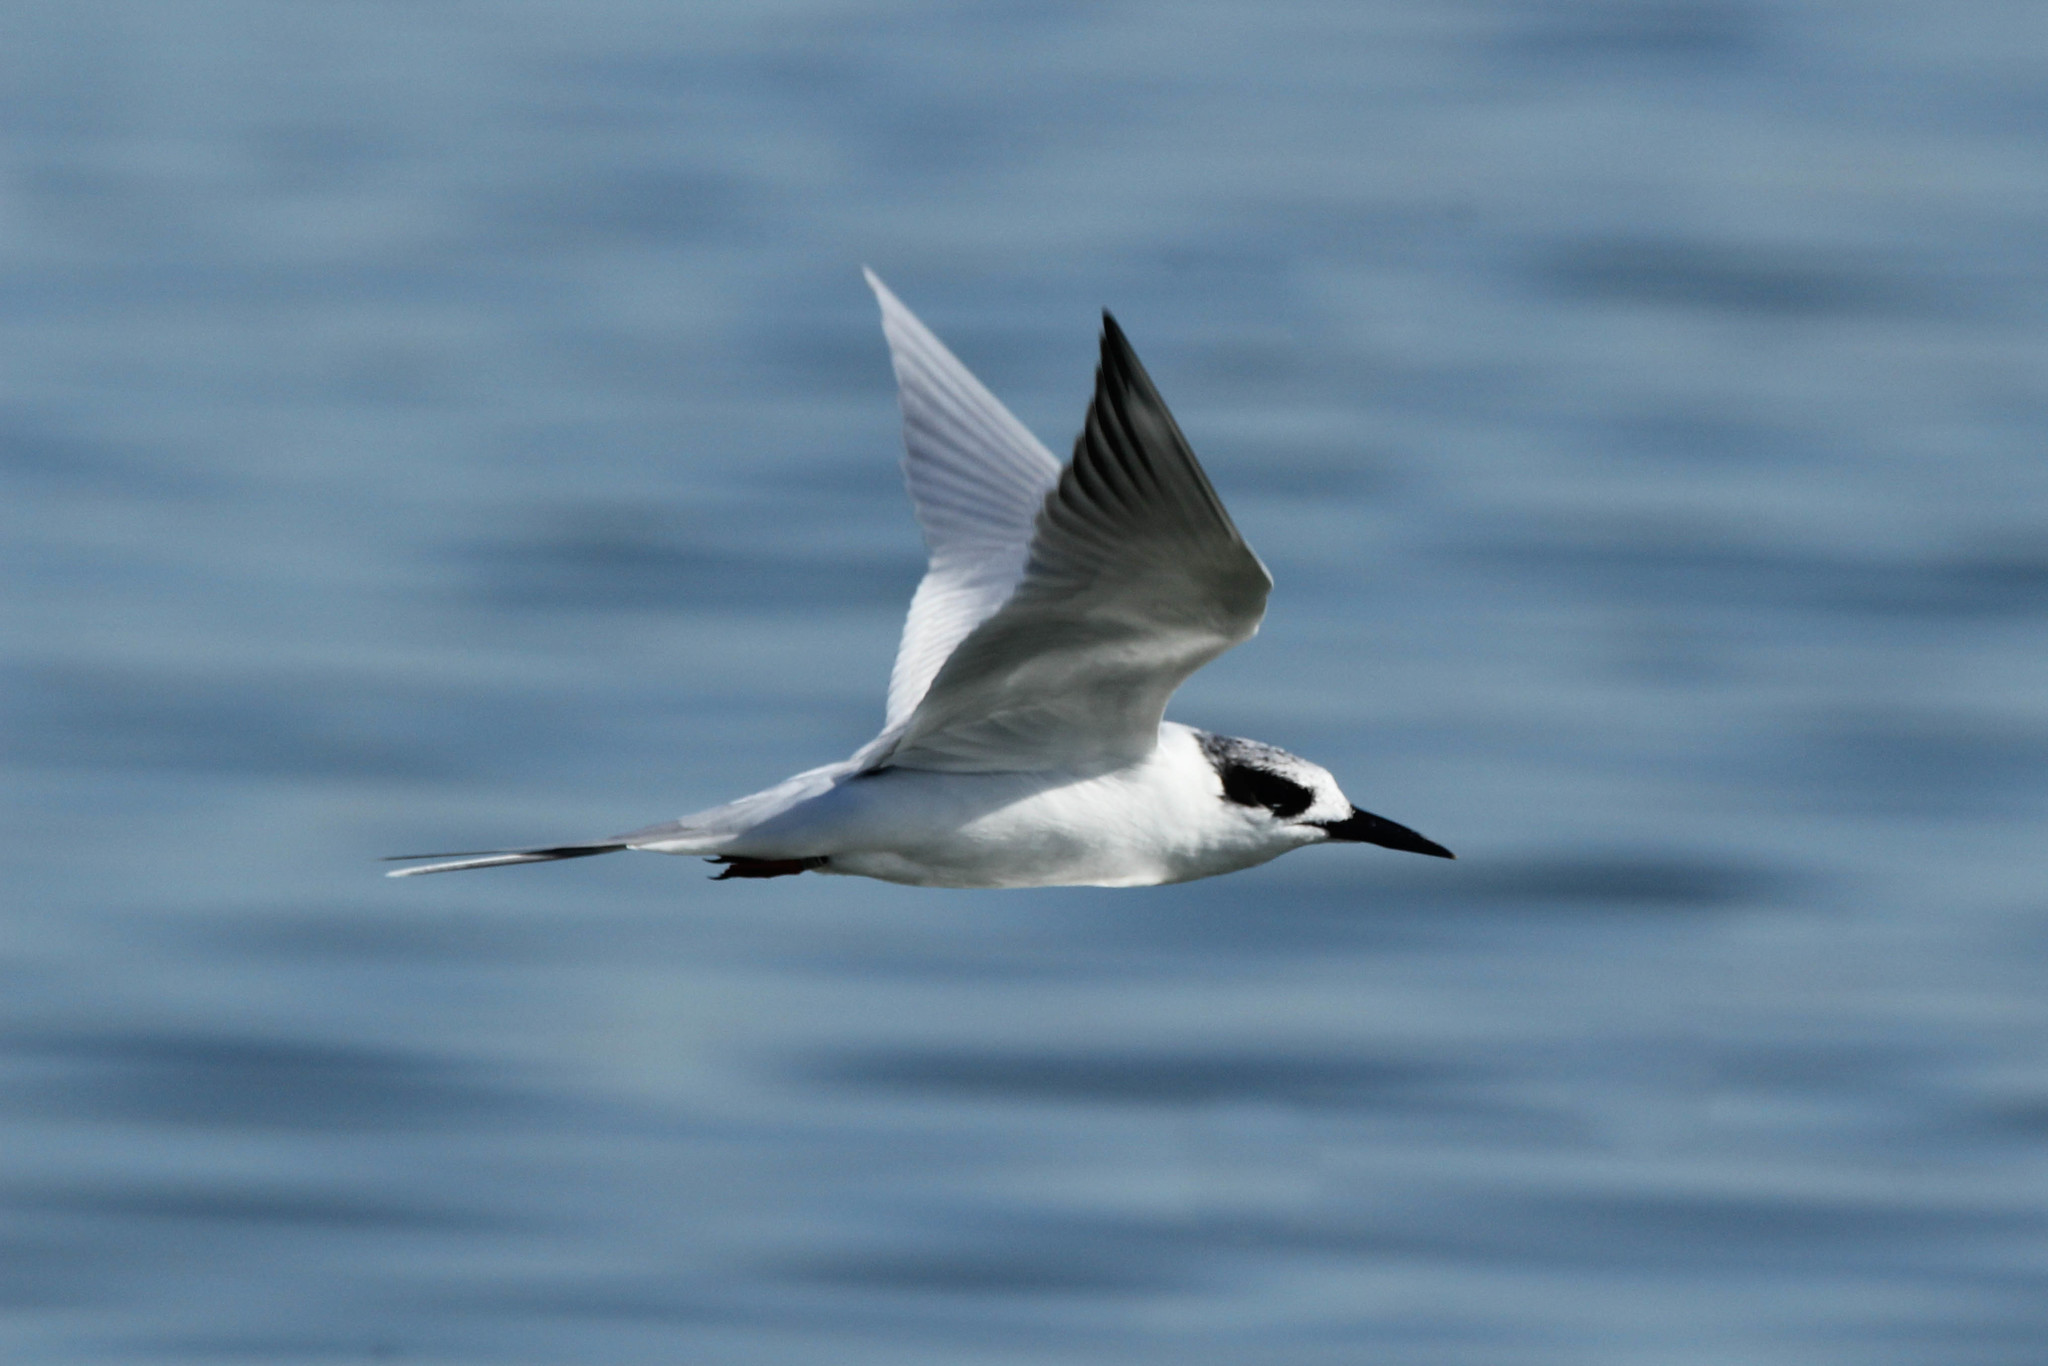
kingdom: Animalia
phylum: Chordata
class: Aves
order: Charadriiformes
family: Laridae
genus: Sterna
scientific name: Sterna forsteri
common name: Forster's tern
